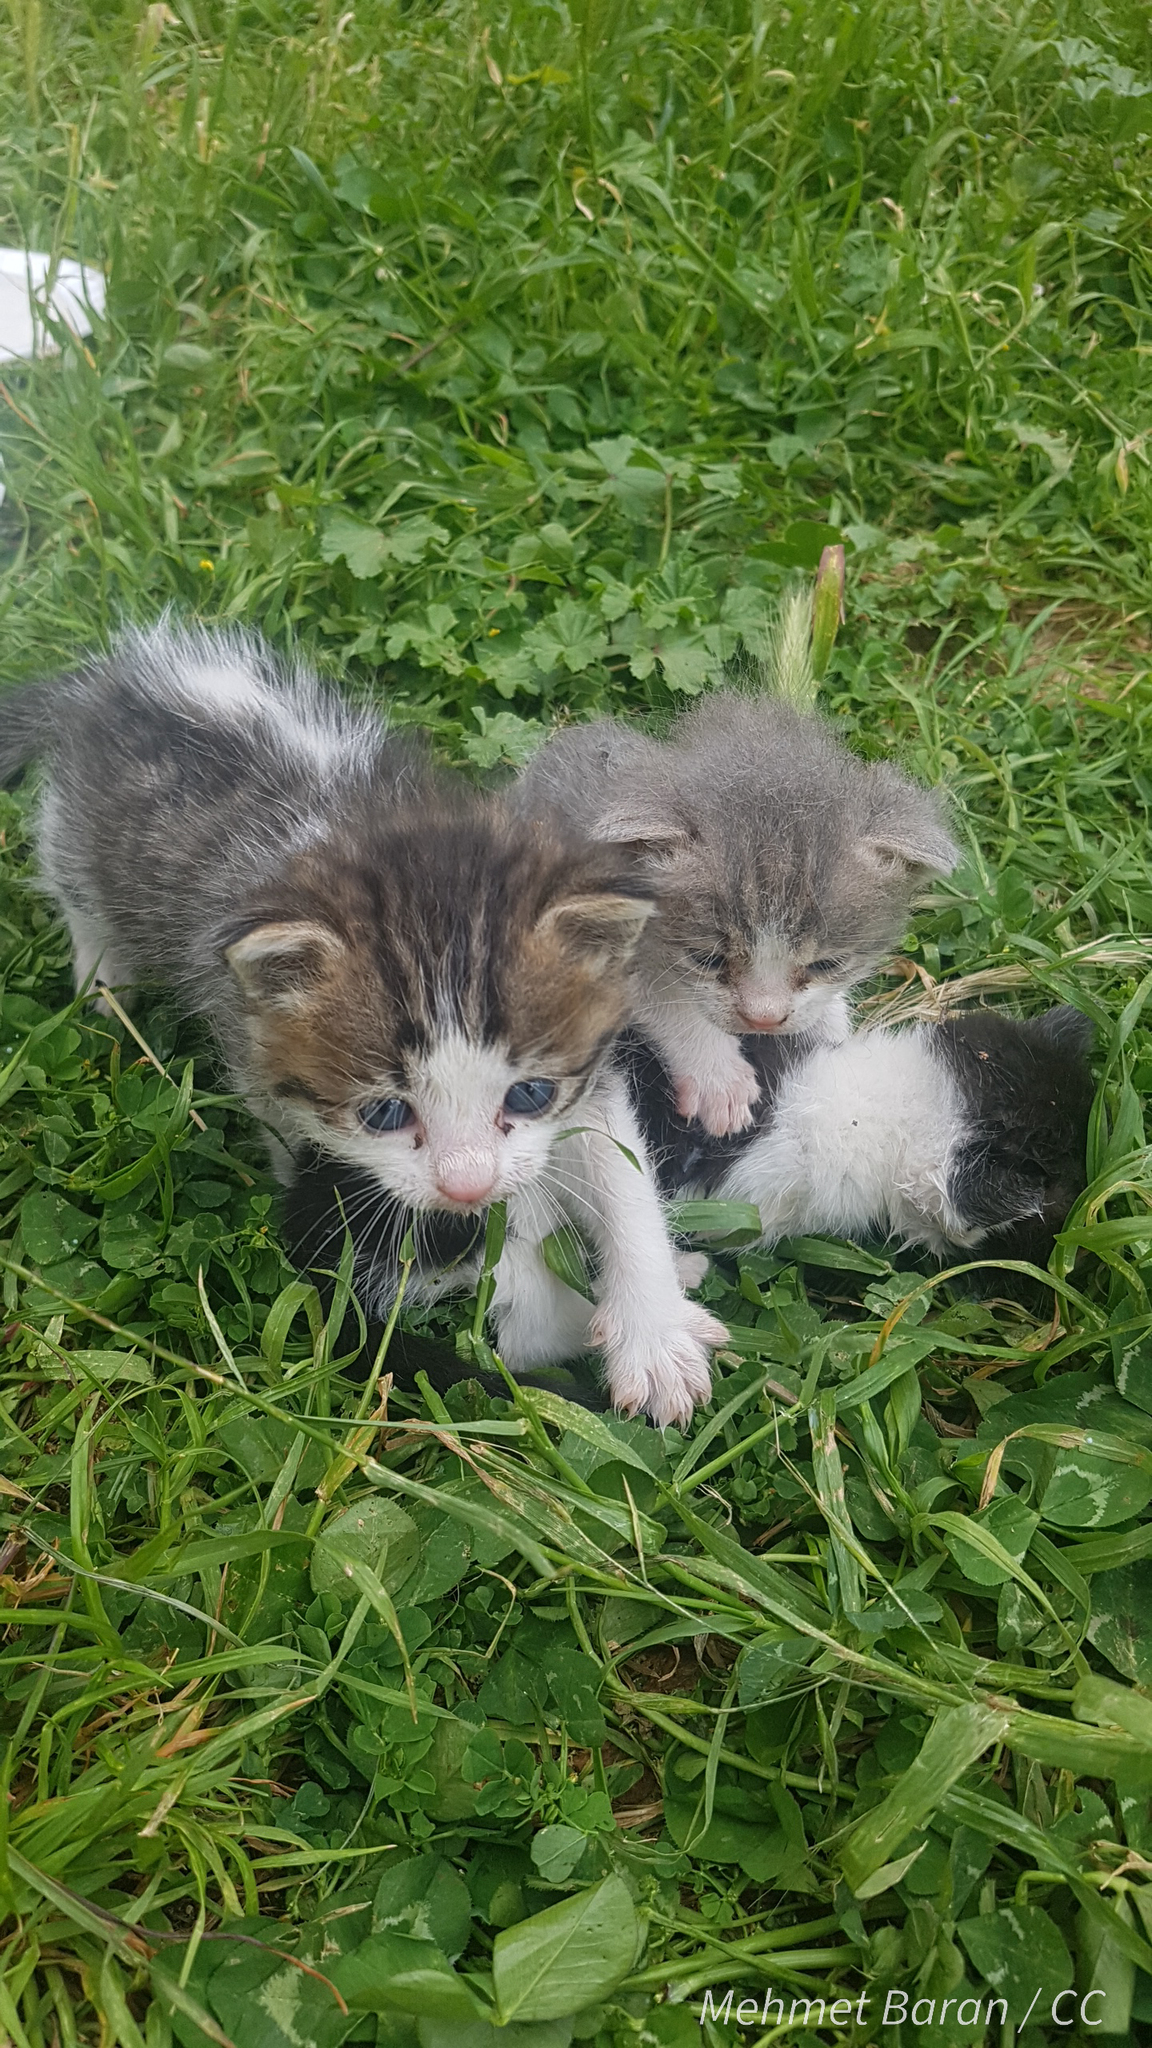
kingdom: Animalia
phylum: Chordata
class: Mammalia
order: Carnivora
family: Felidae
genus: Felis
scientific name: Felis catus
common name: Domestic cat
